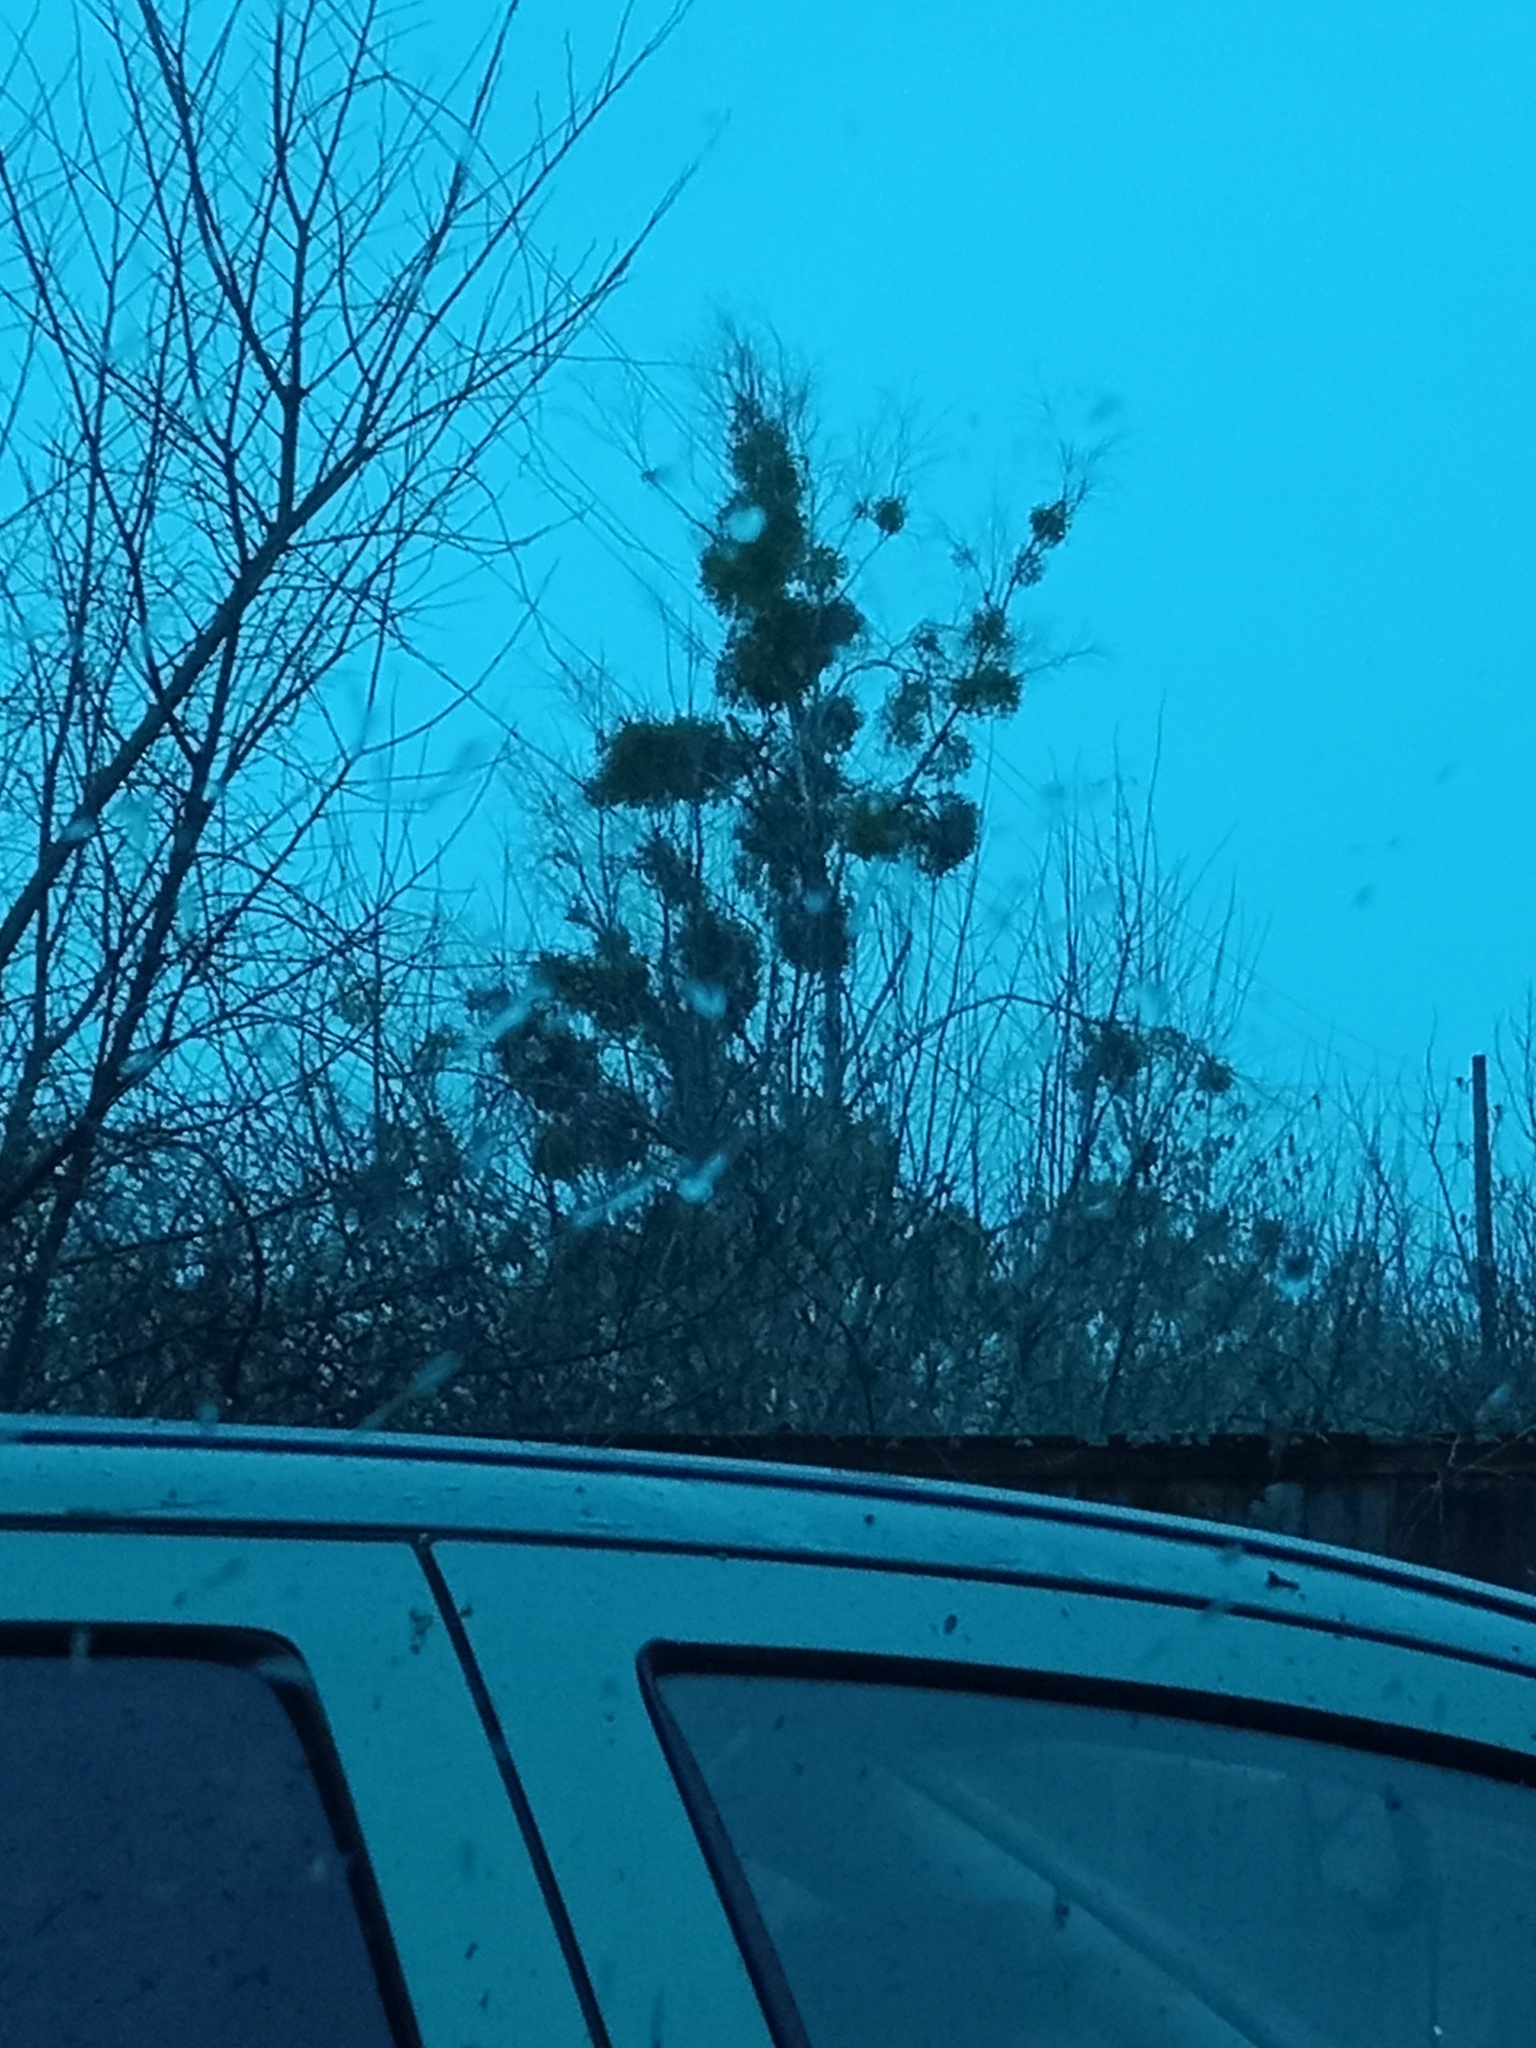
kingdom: Plantae
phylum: Tracheophyta
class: Magnoliopsida
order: Santalales
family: Viscaceae
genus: Viscum
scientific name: Viscum album
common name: Mistletoe
